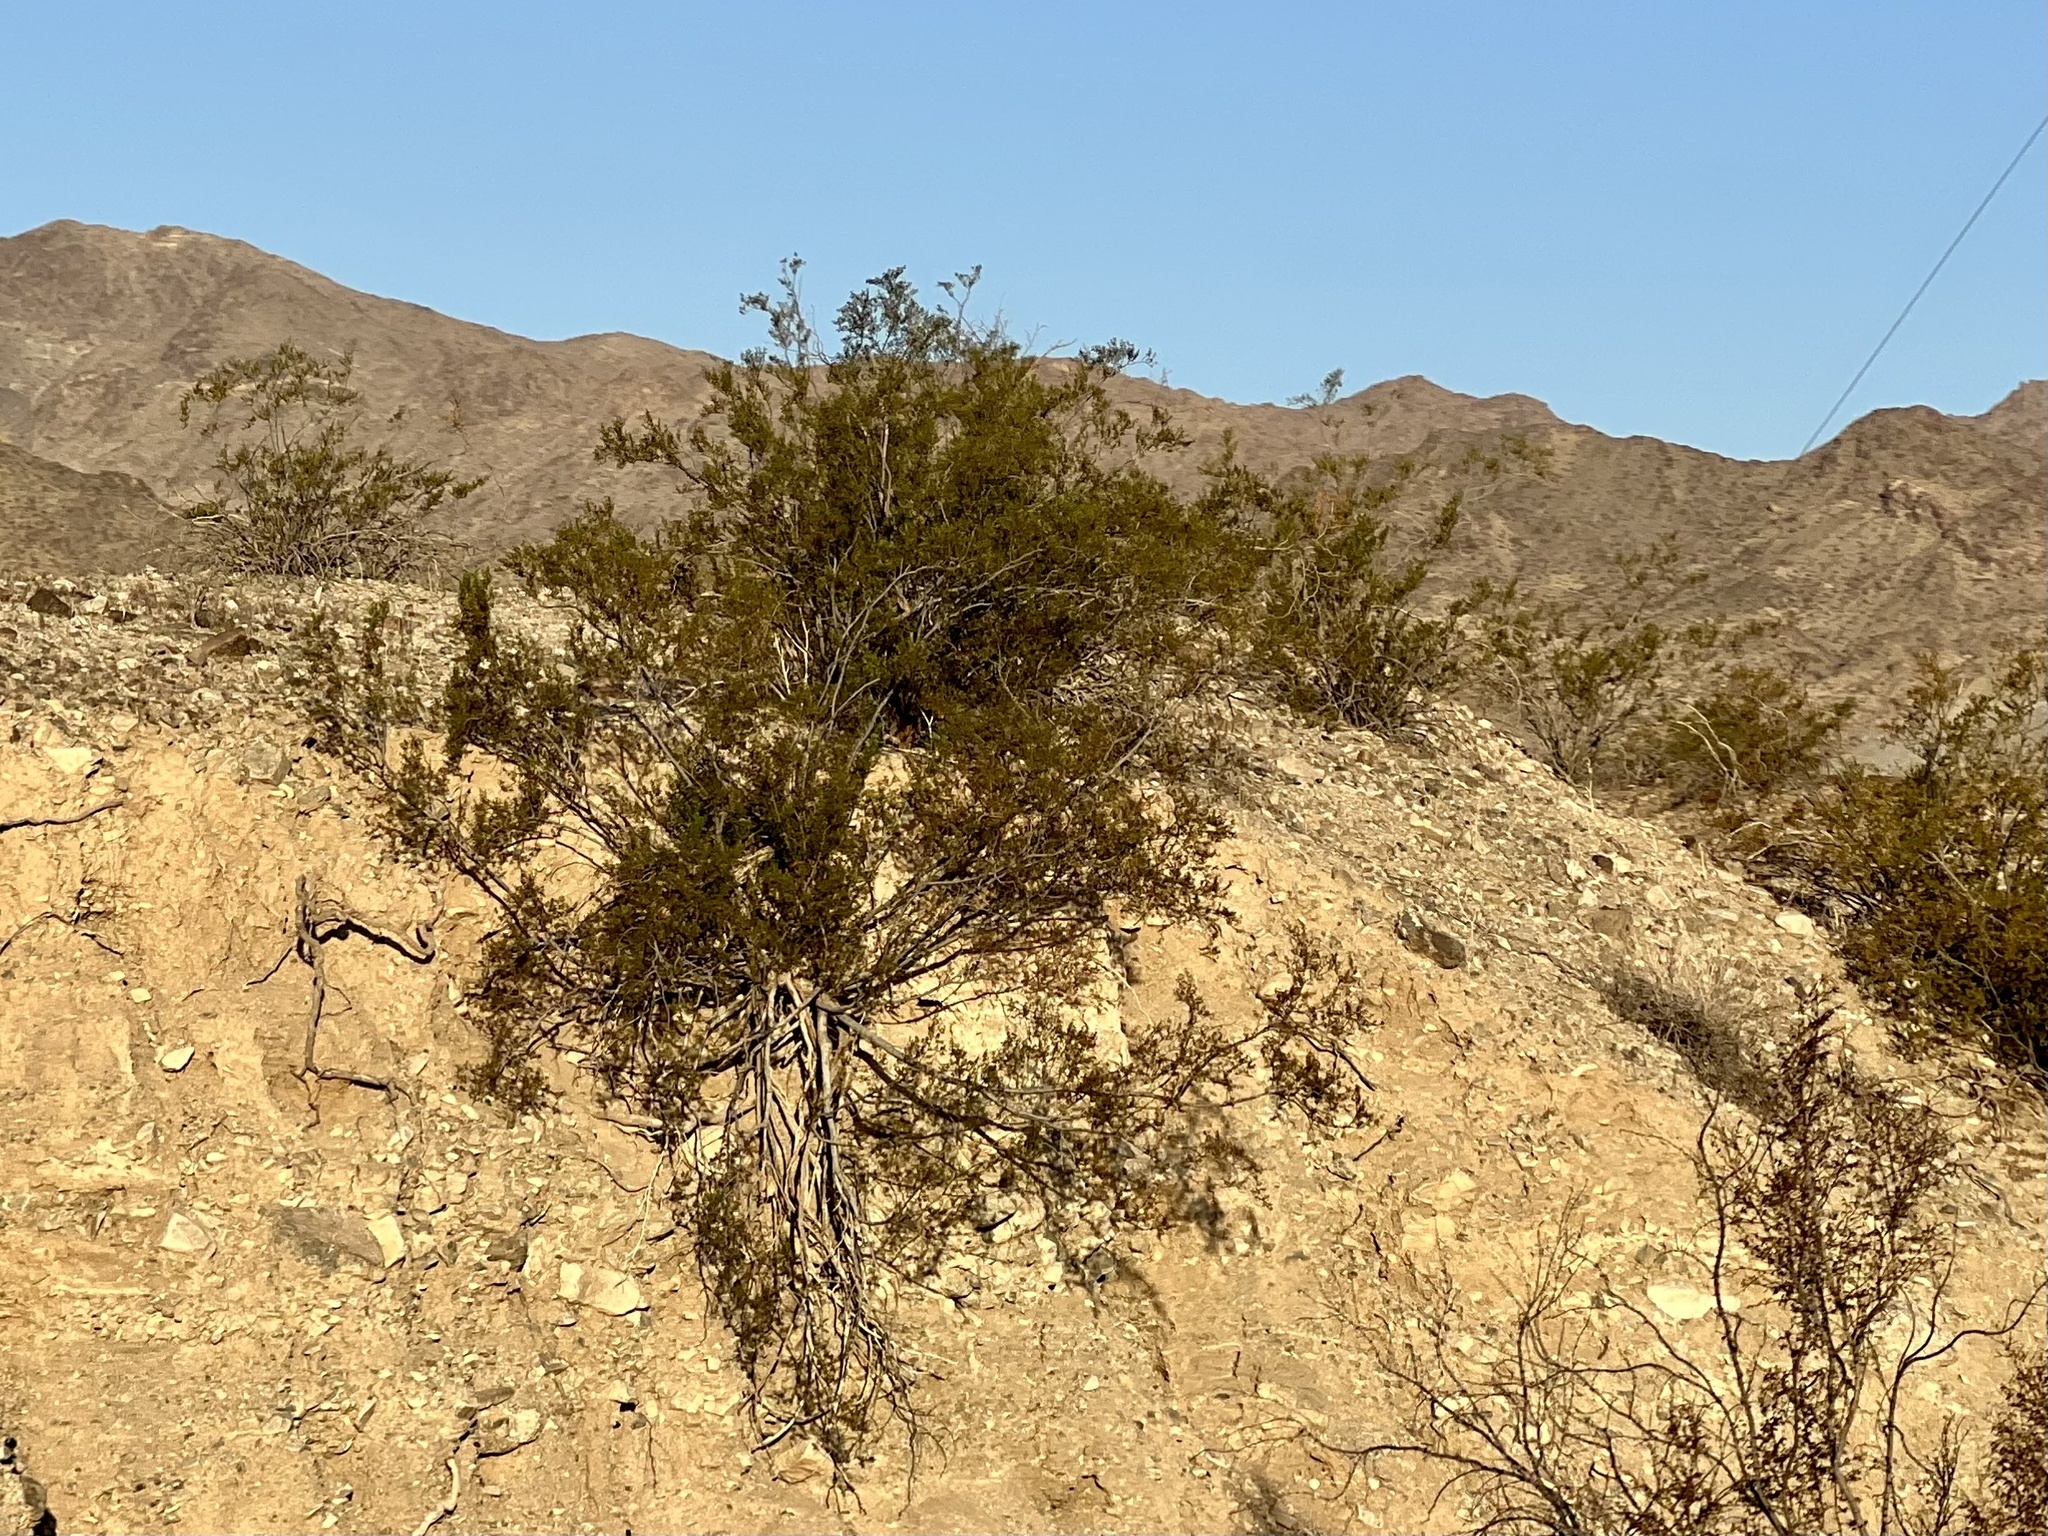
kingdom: Plantae
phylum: Tracheophyta
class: Magnoliopsida
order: Zygophyllales
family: Zygophyllaceae
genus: Larrea
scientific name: Larrea tridentata
